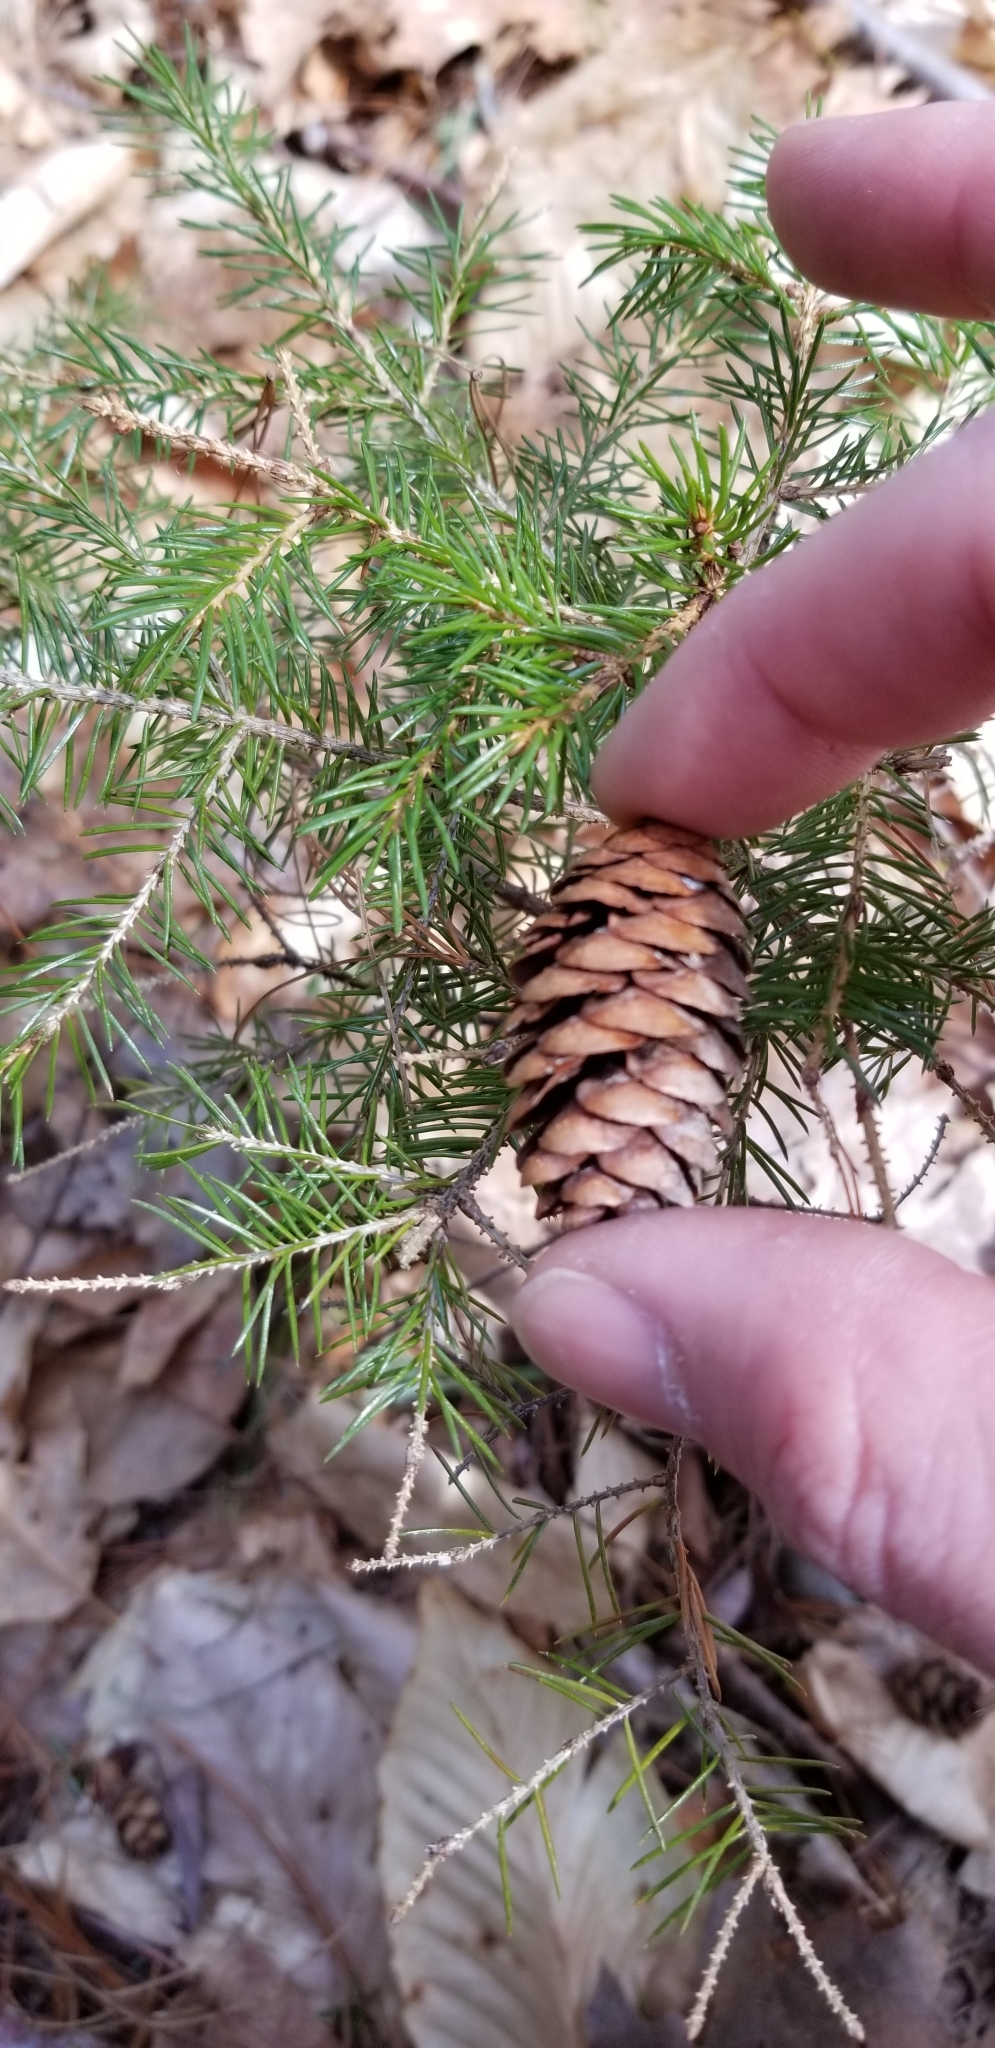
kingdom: Plantae
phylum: Tracheophyta
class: Pinopsida
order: Pinales
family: Pinaceae
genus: Picea
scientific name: Picea rubens
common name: Red spruce
